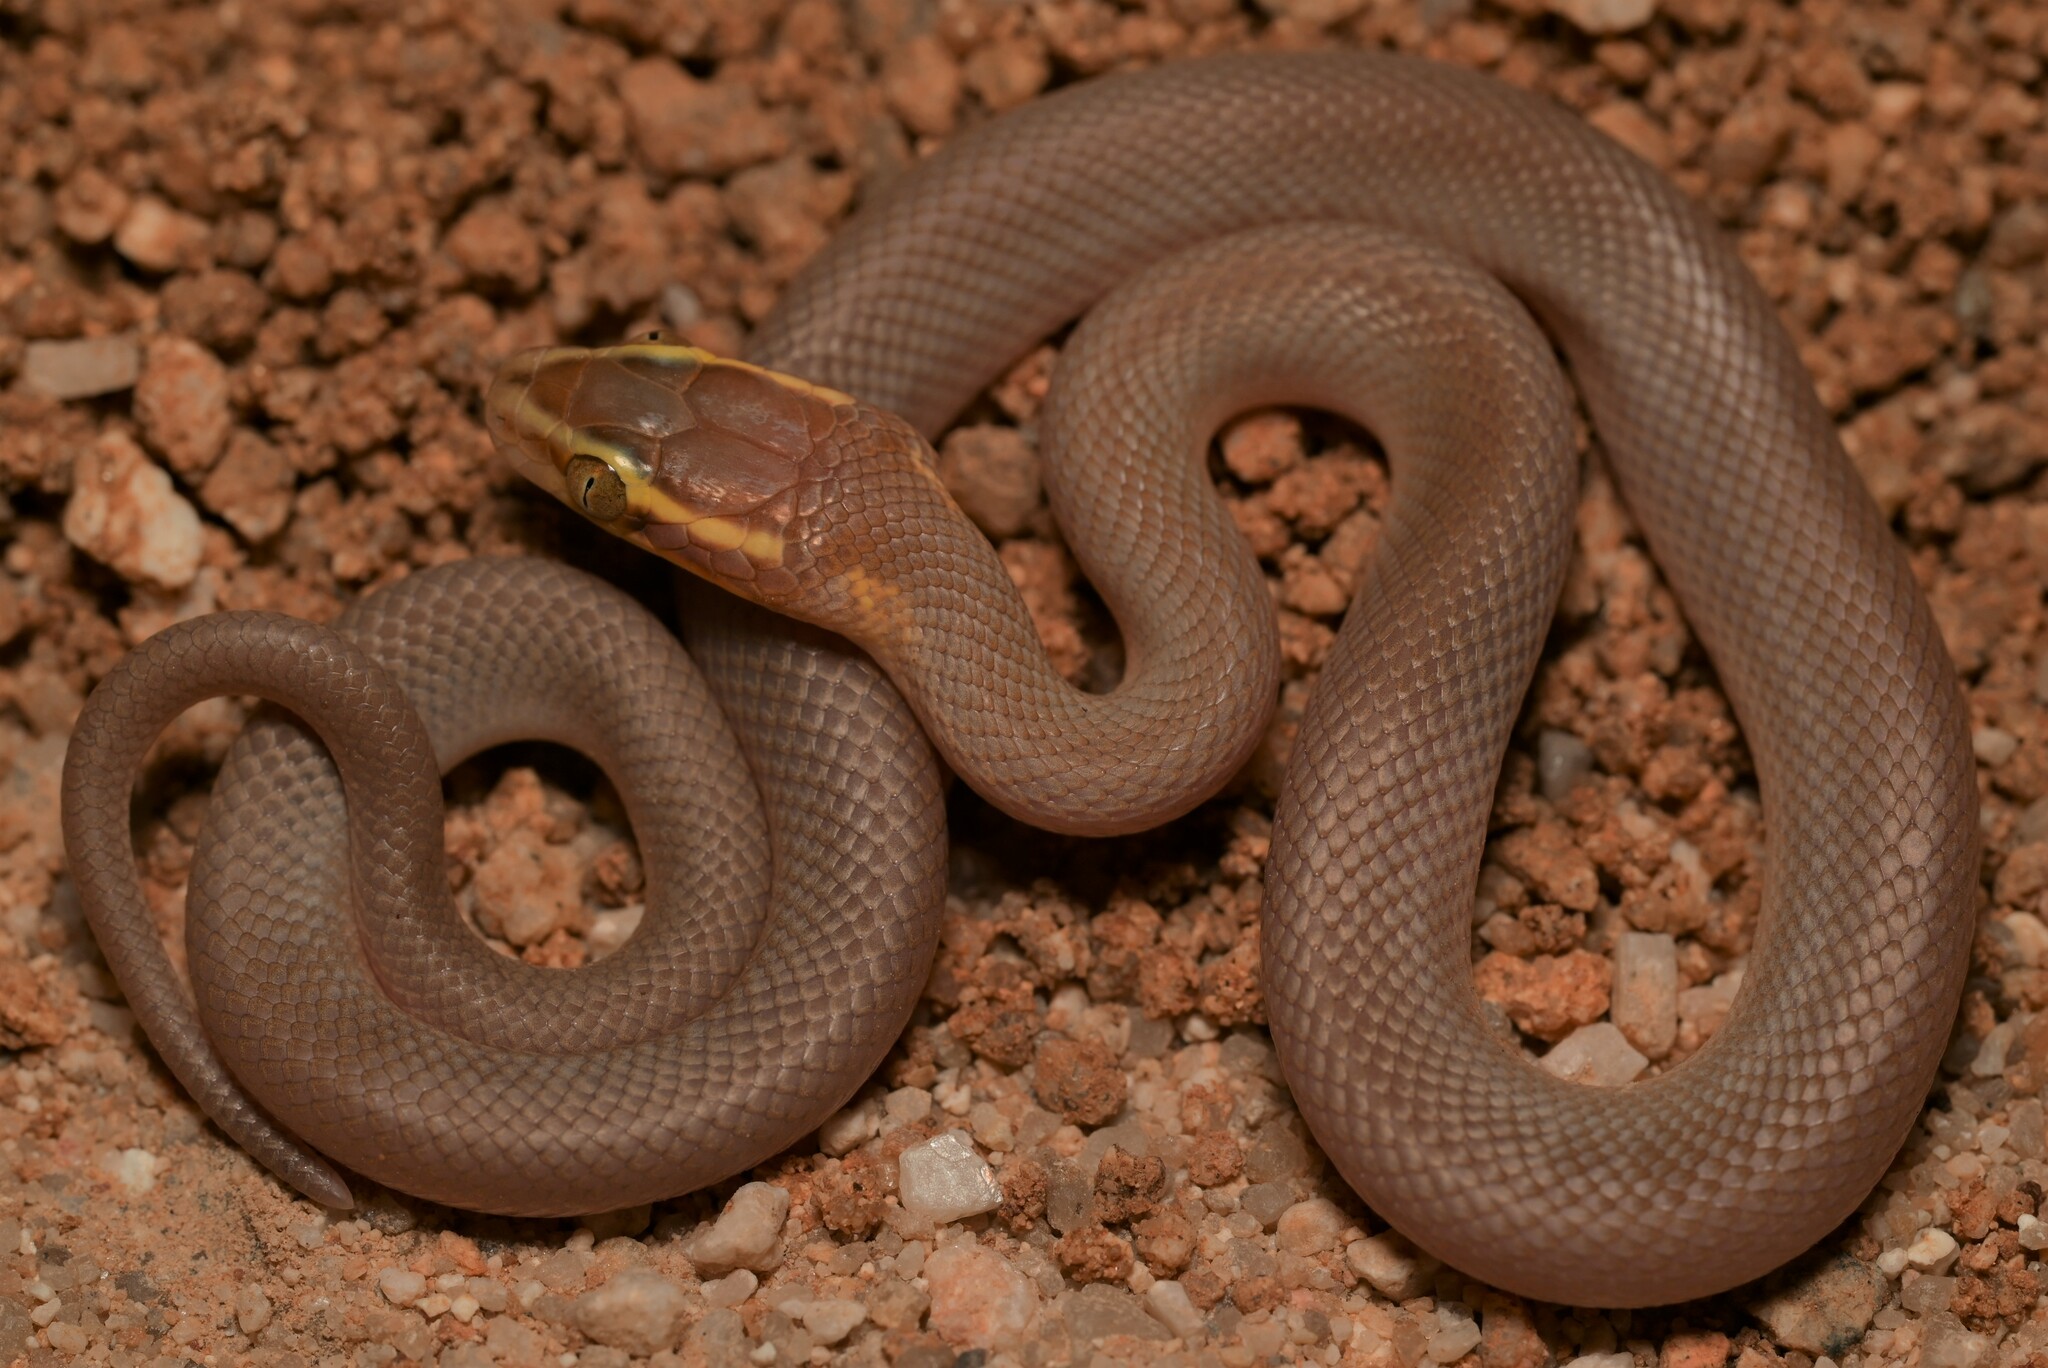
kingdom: Animalia
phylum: Chordata
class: Squamata
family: Lamprophiidae
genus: Boaedon
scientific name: Boaedon mentalis
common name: Bug-eyed house snake
